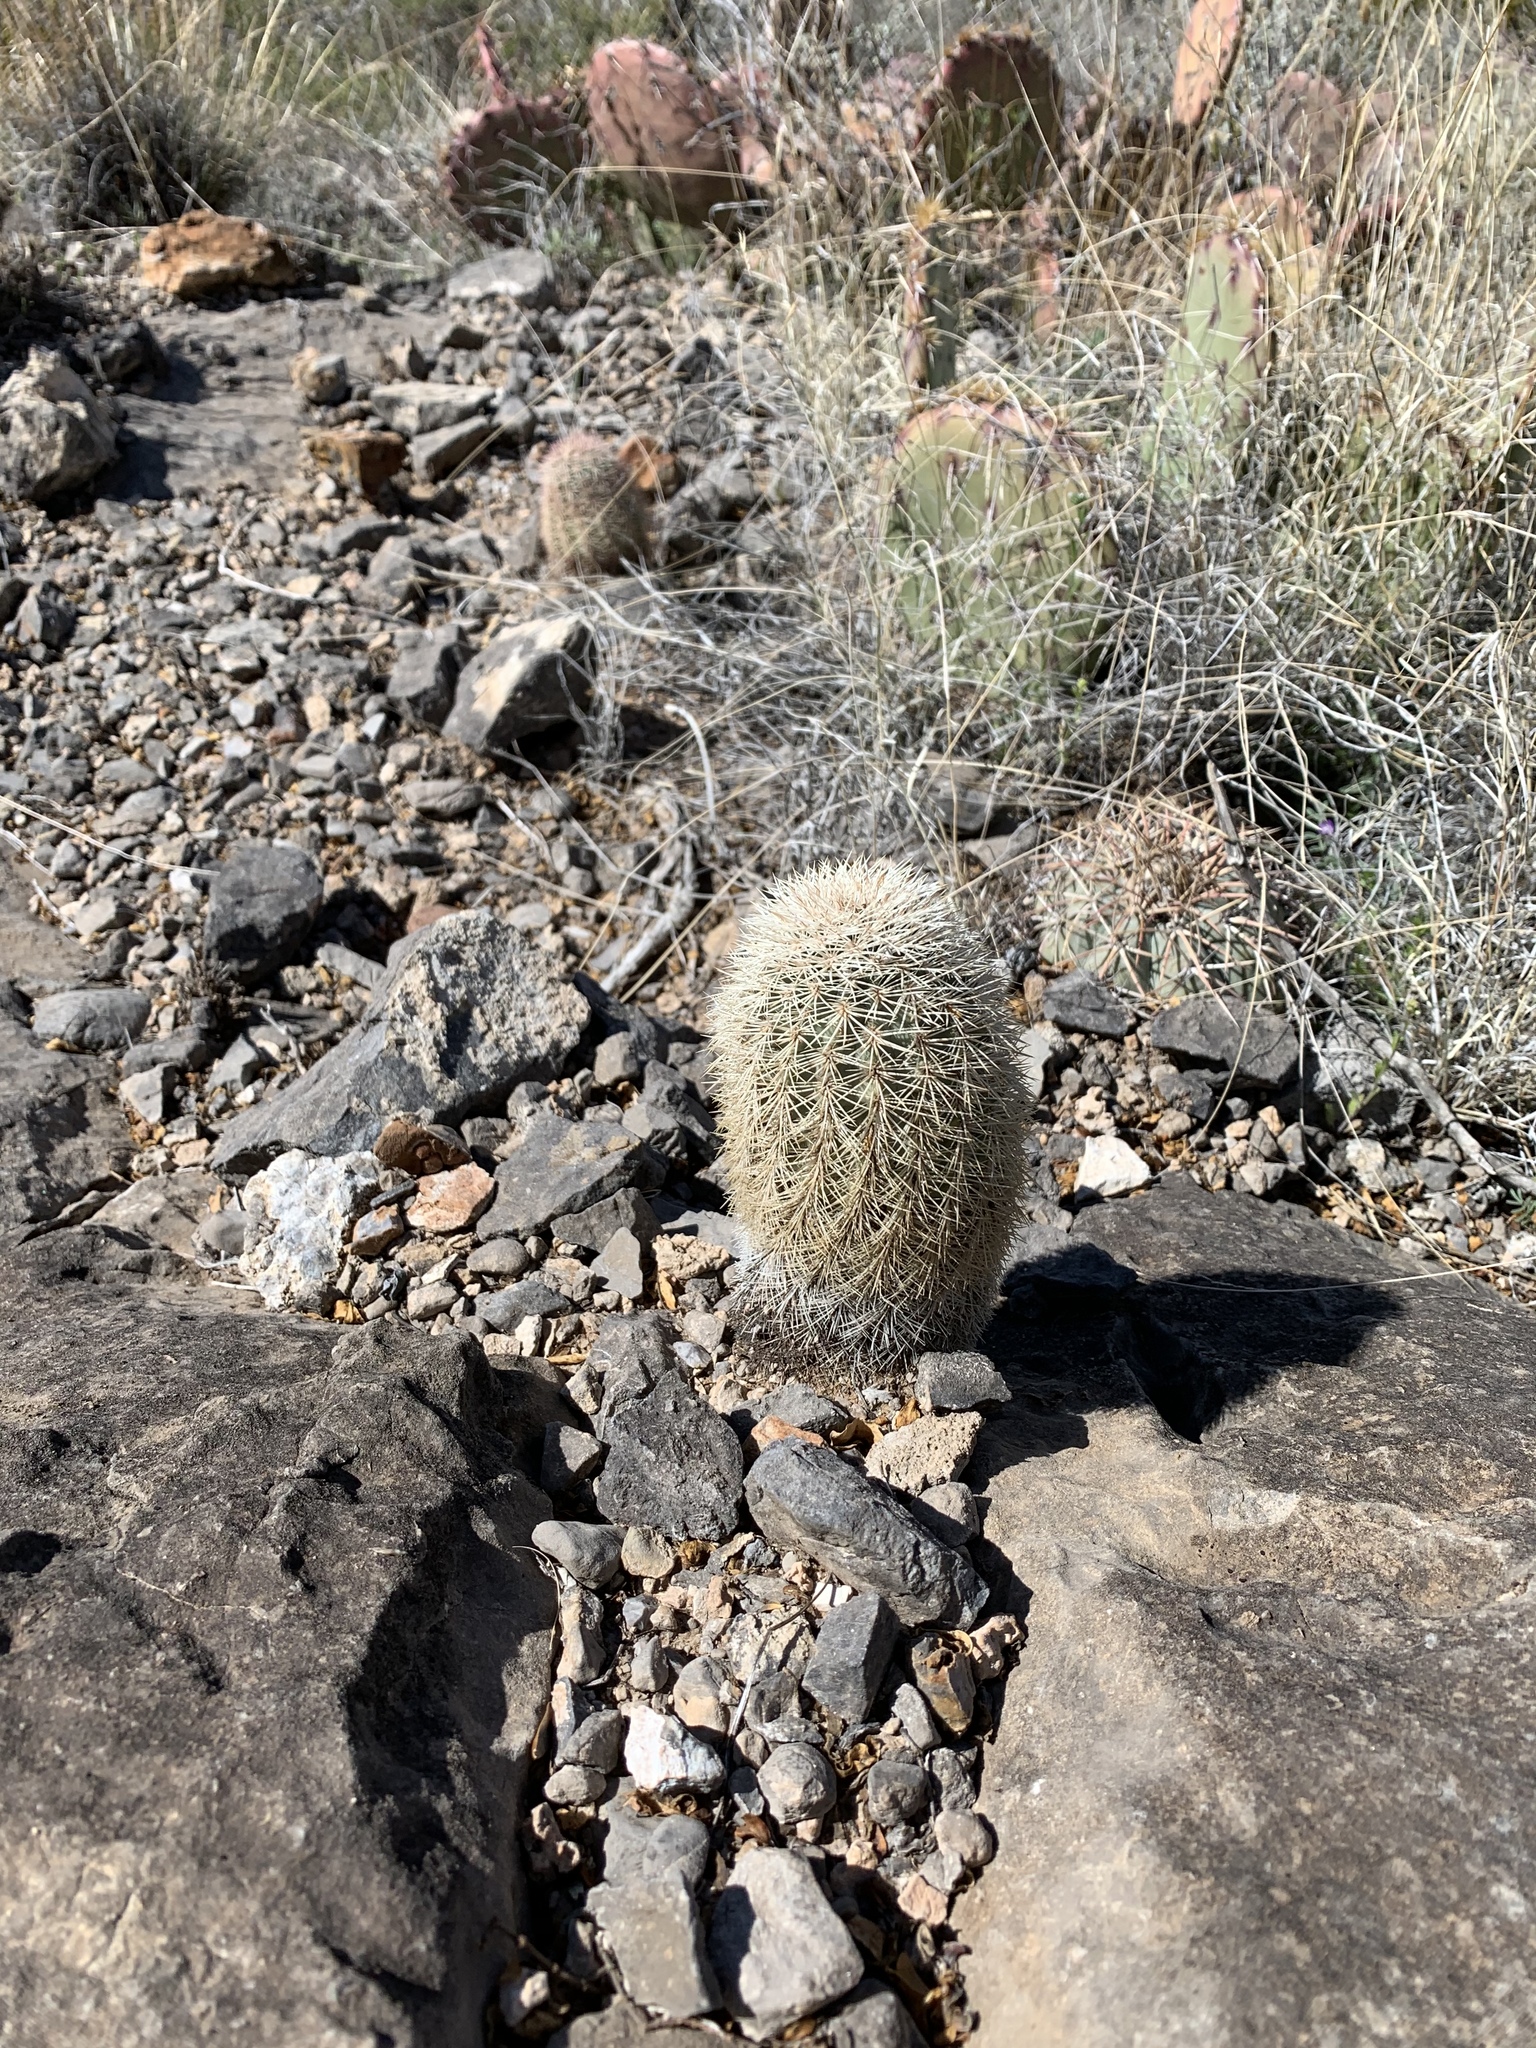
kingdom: Plantae
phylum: Tracheophyta
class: Magnoliopsida
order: Caryophyllales
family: Cactaceae
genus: Echinocereus
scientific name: Echinocereus dasyacanthus
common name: Spiny hedgehog cactus
